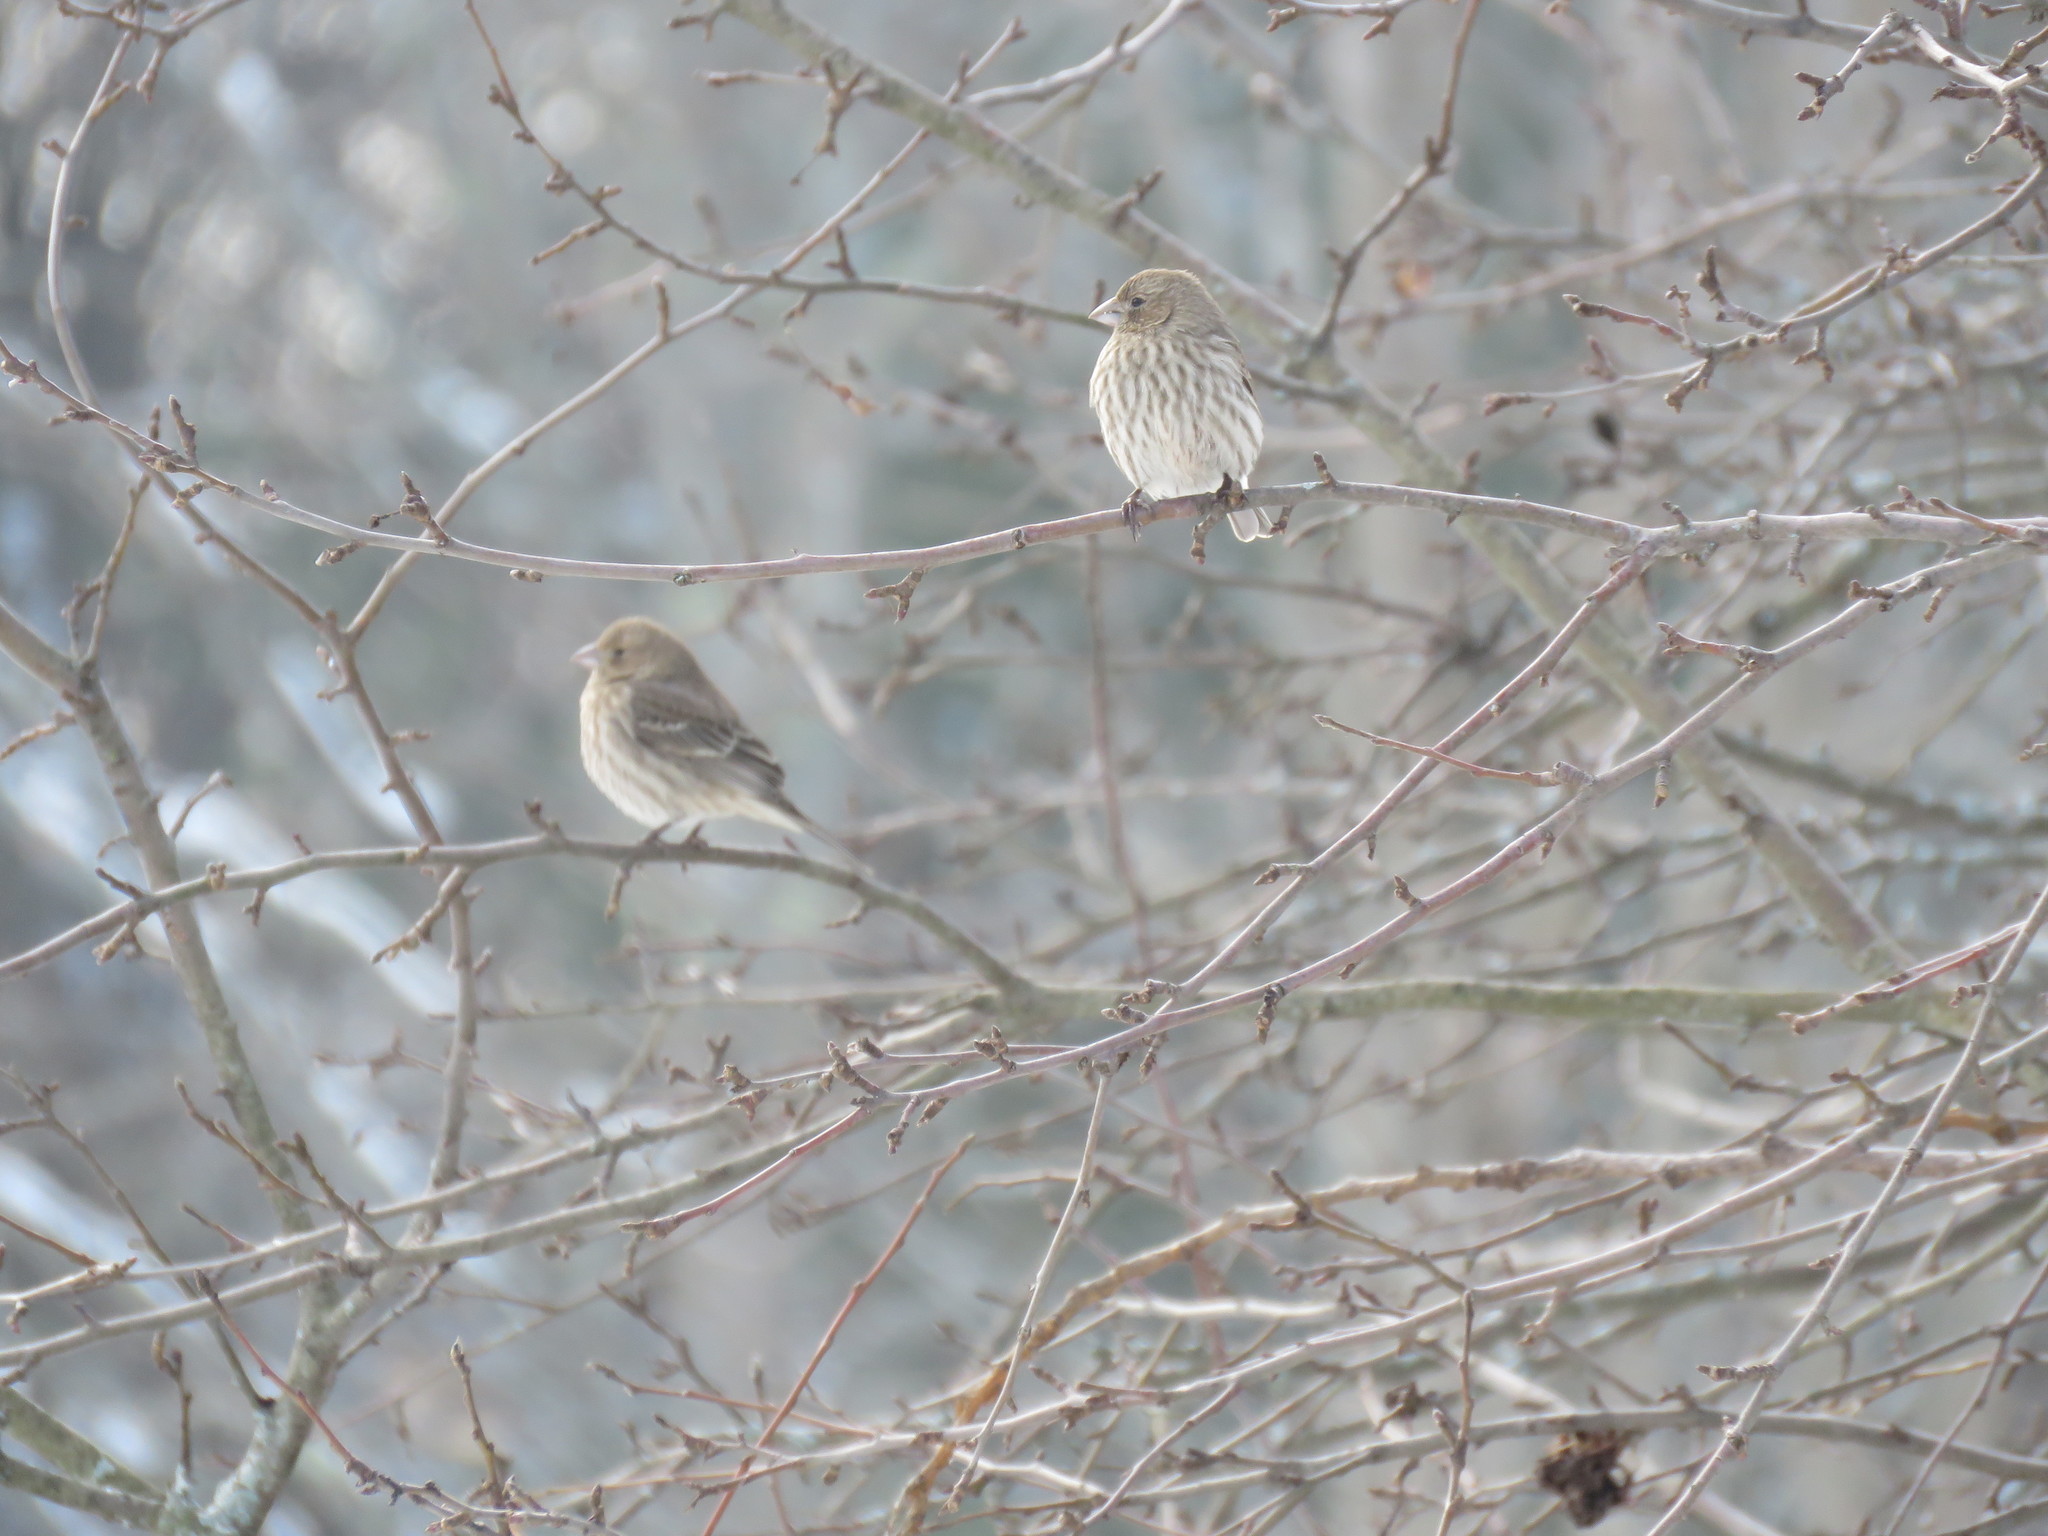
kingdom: Animalia
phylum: Chordata
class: Aves
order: Passeriformes
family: Fringillidae
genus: Haemorhous
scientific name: Haemorhous mexicanus
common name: House finch
